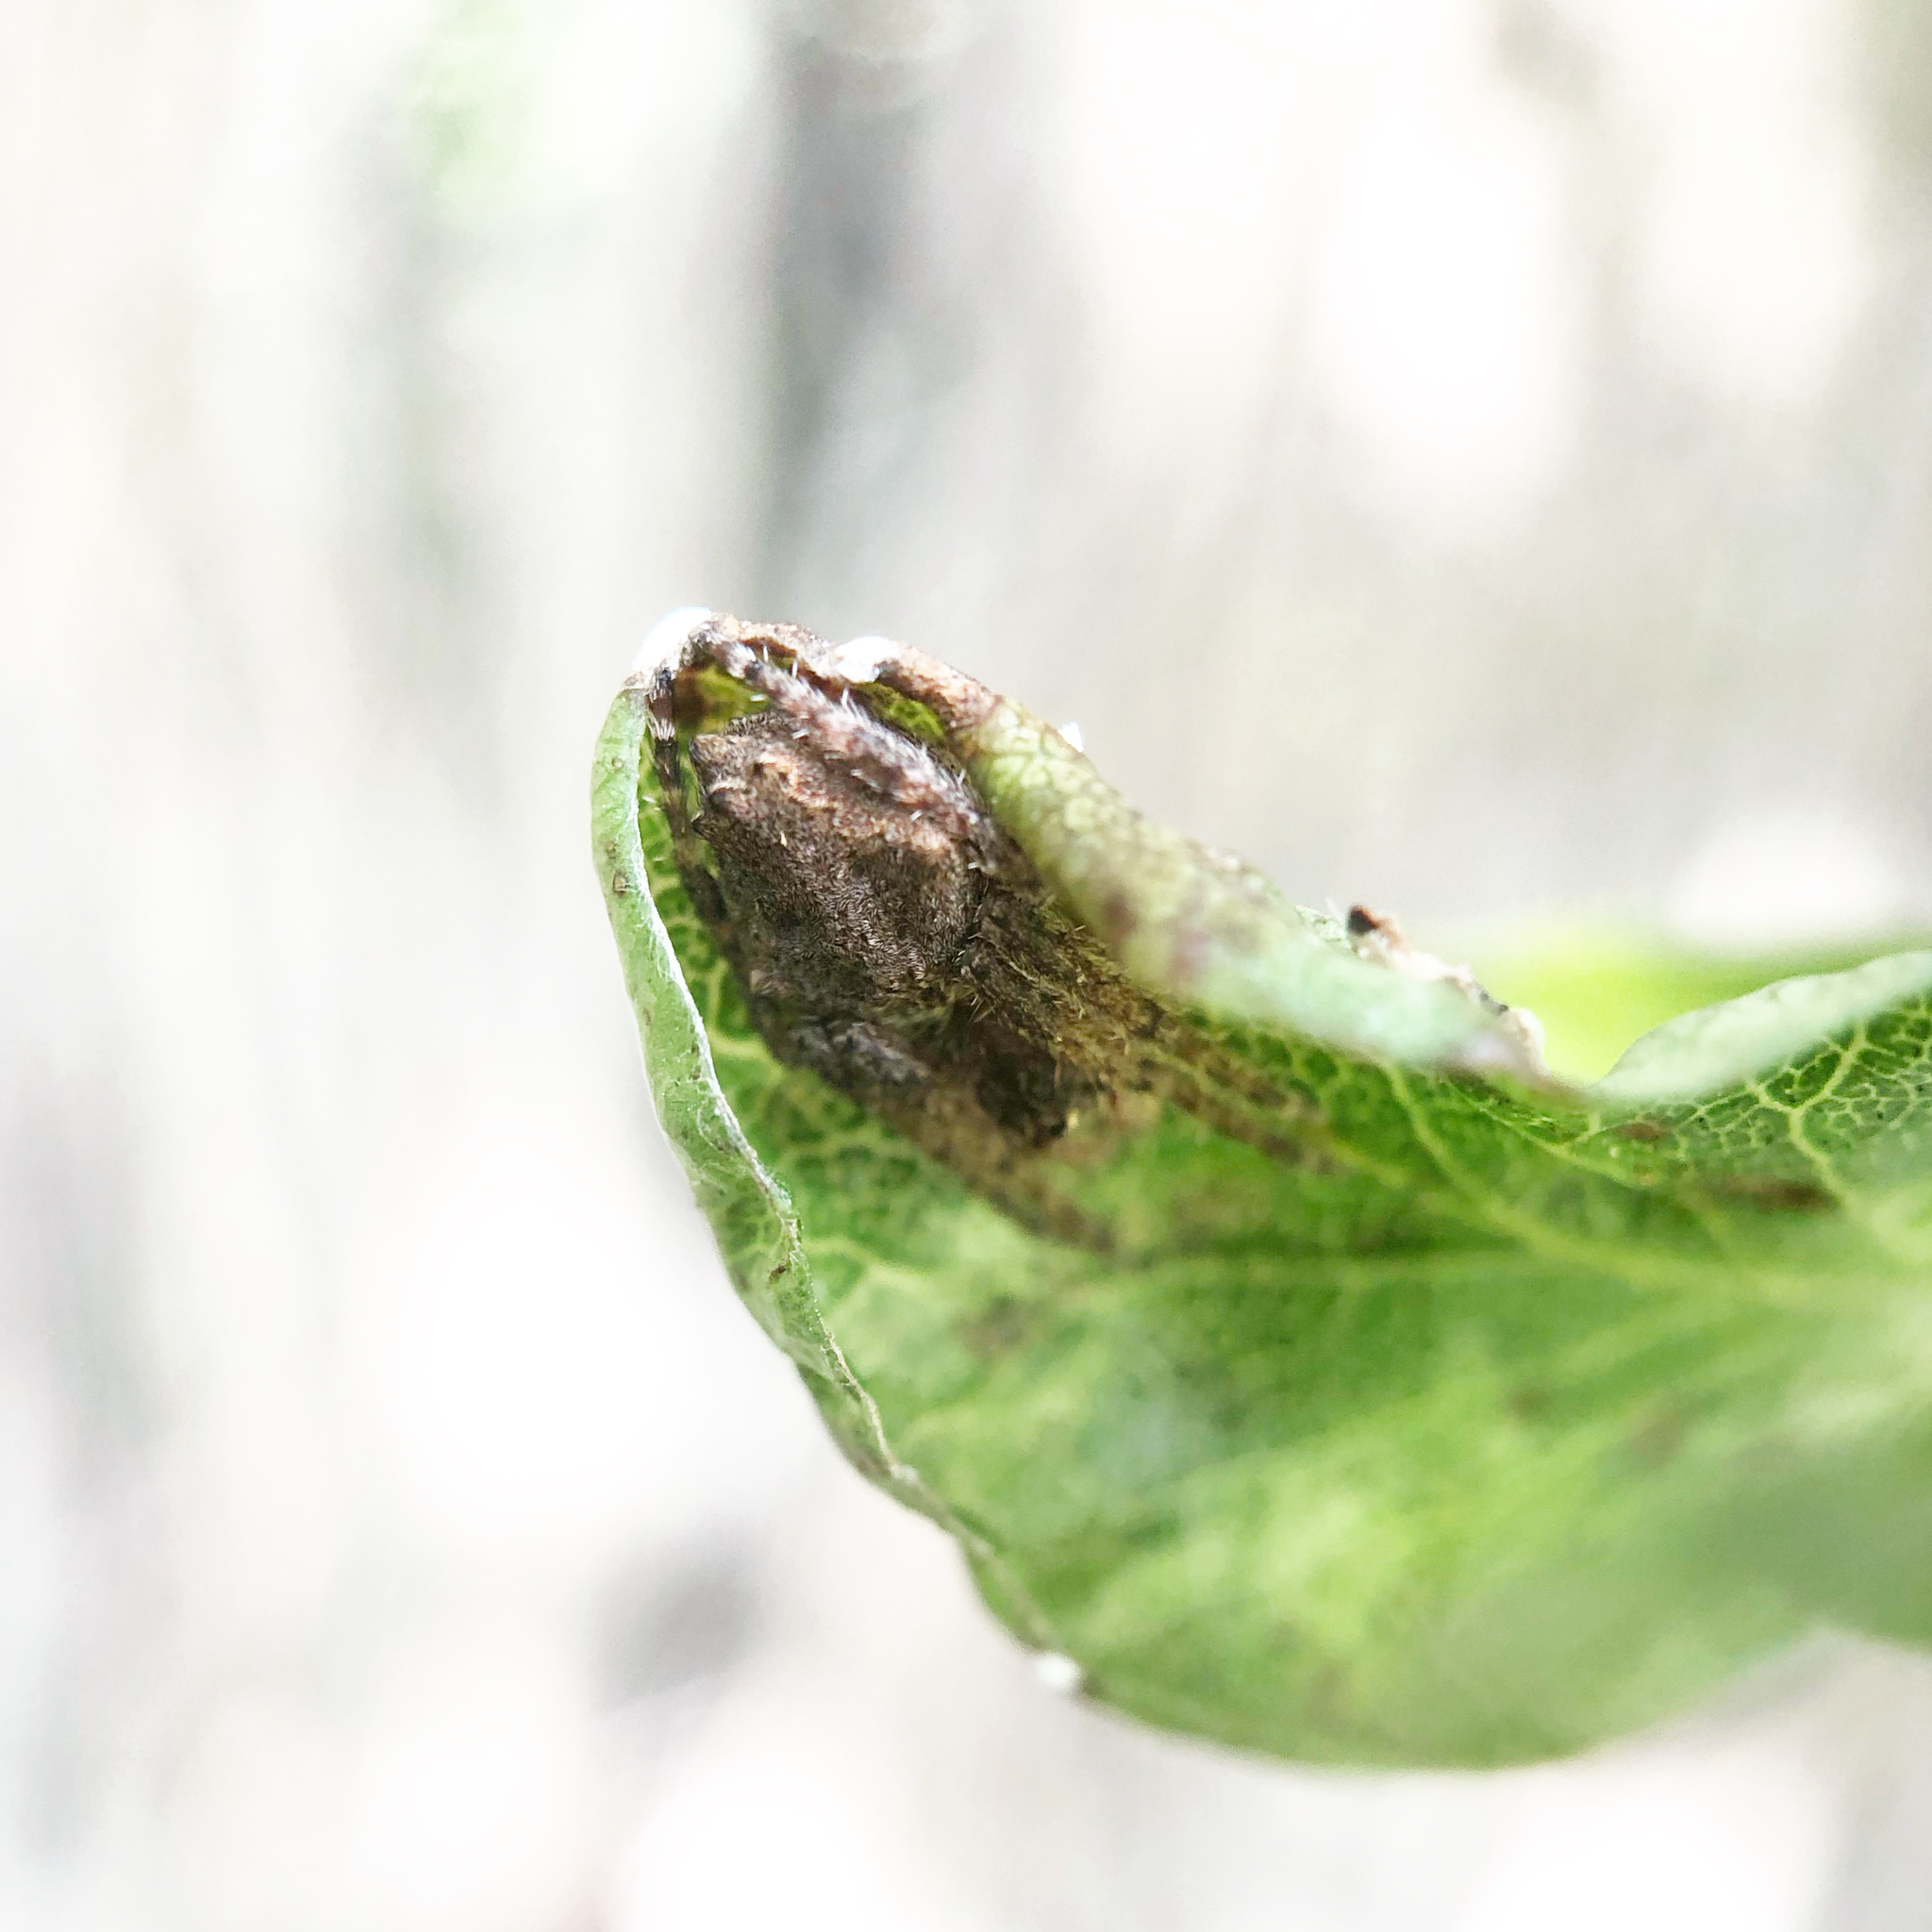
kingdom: Animalia
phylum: Arthropoda
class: Arachnida
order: Araneae
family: Araneidae
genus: Eriophora
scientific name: Eriophora pustulosa
